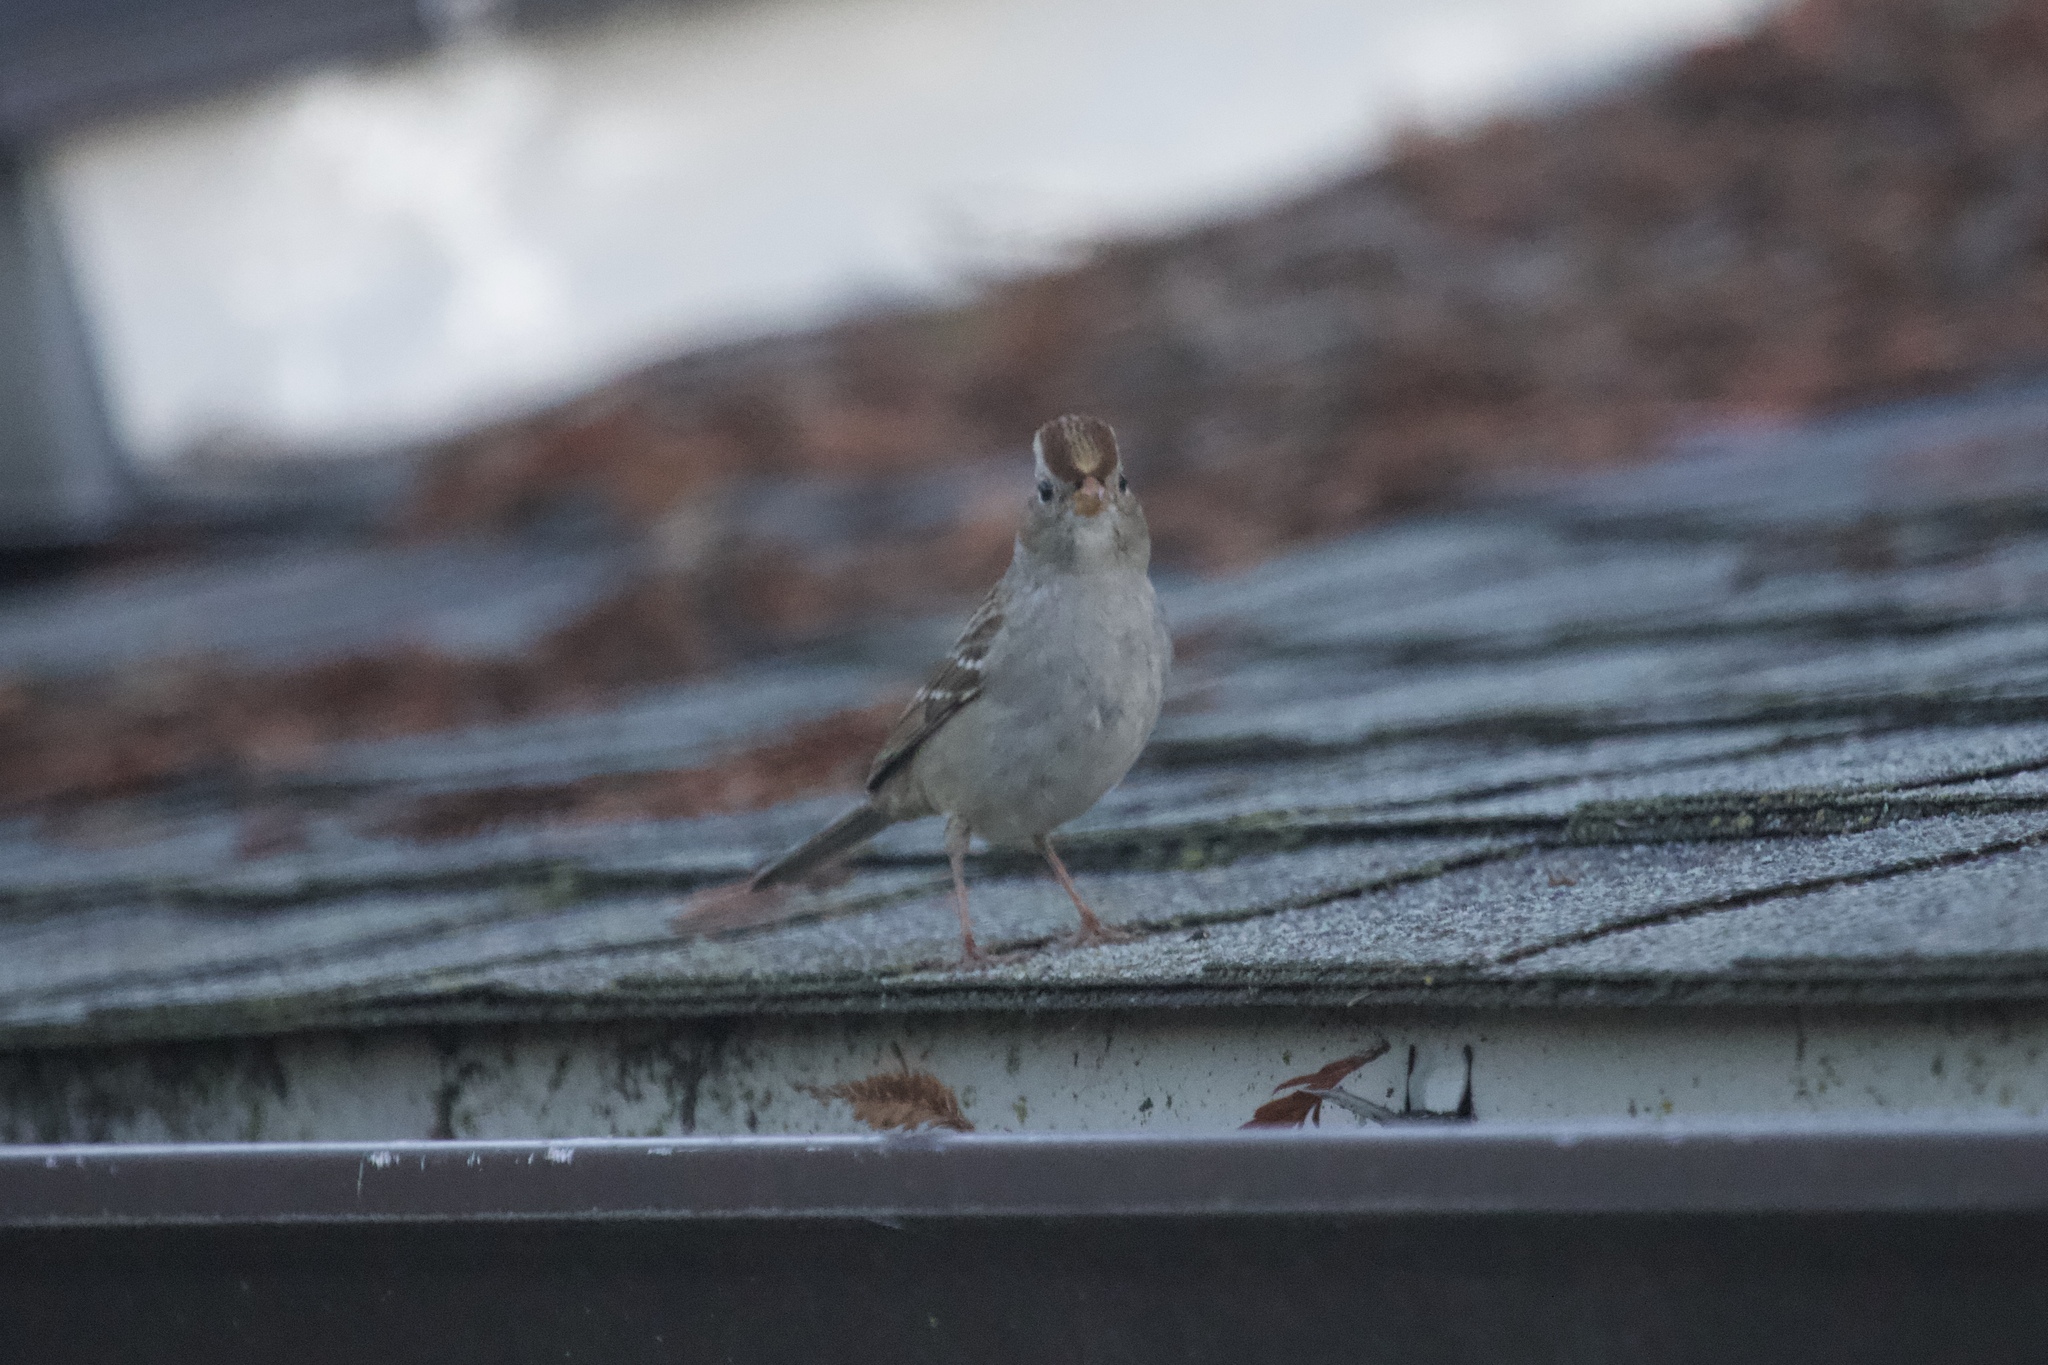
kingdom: Animalia
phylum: Chordata
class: Aves
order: Passeriformes
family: Passerellidae
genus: Zonotrichia
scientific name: Zonotrichia leucophrys
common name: White-crowned sparrow
